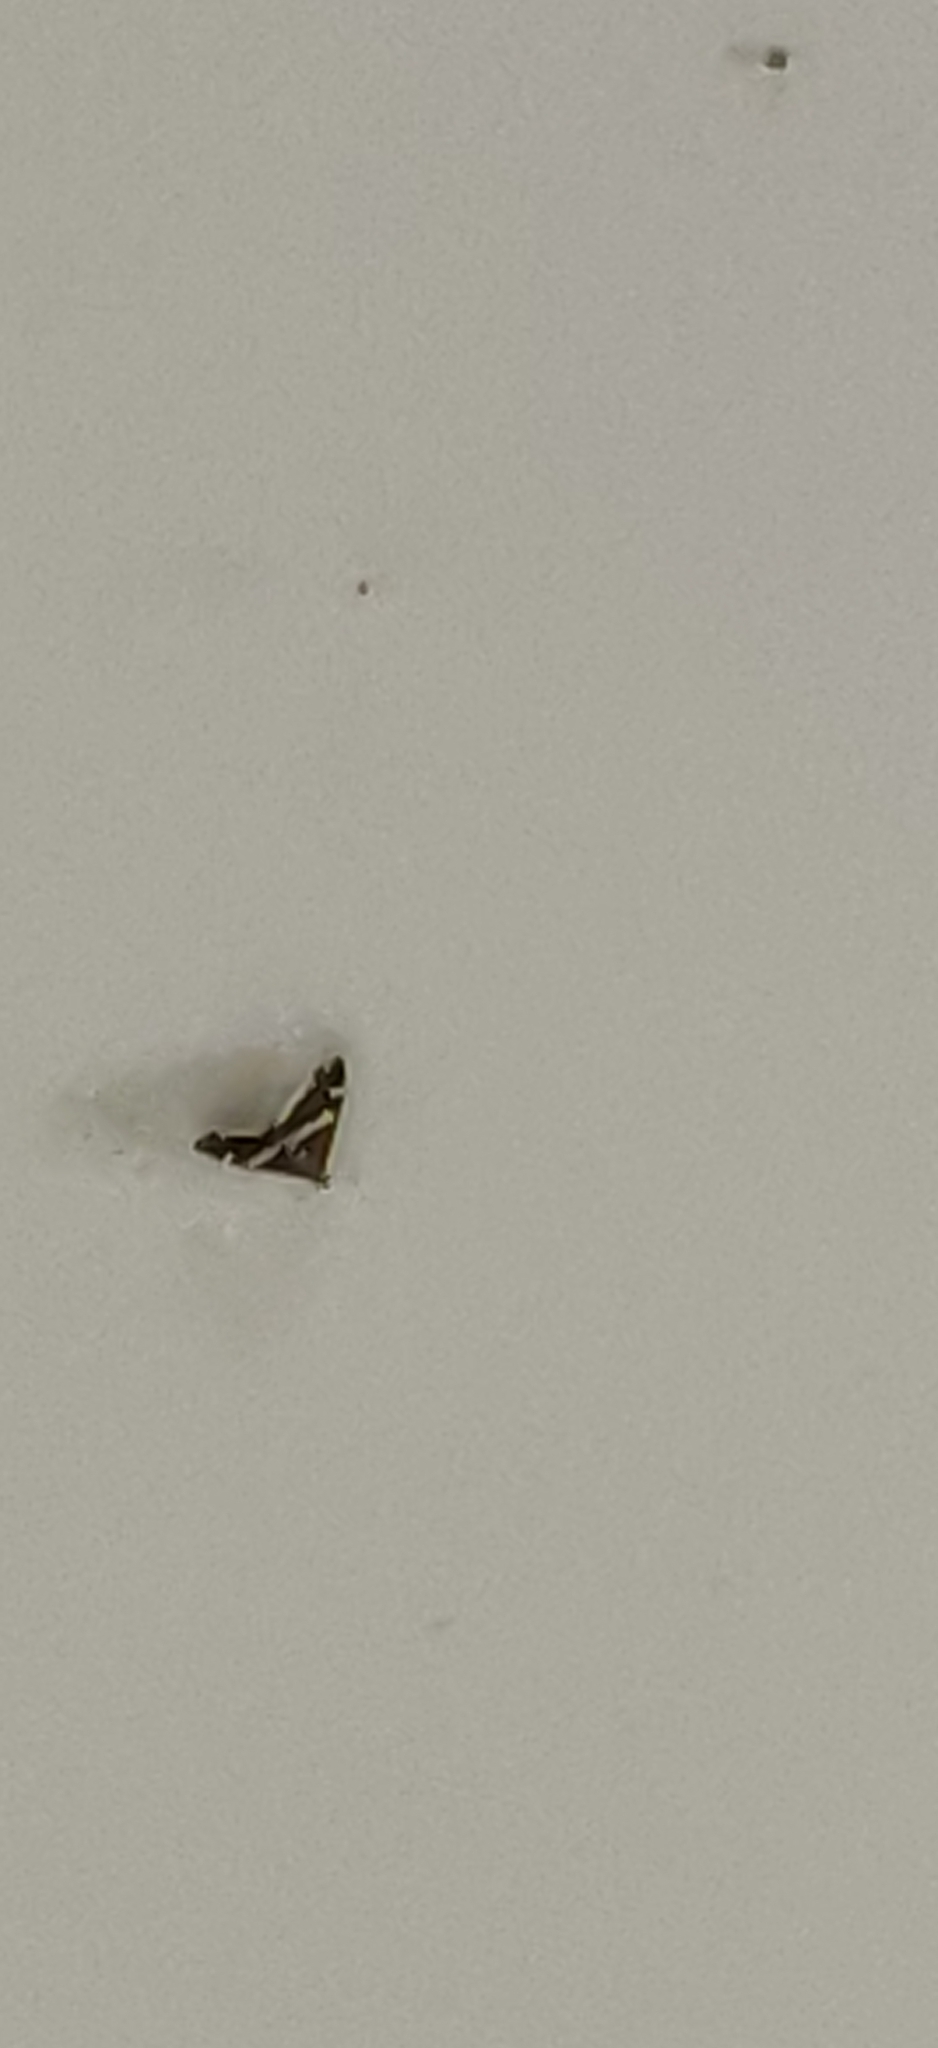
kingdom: Animalia
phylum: Arthropoda
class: Insecta
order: Lepidoptera
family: Crambidae
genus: Spoladea
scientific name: Spoladea recurvalis
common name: Beet webworm moth
